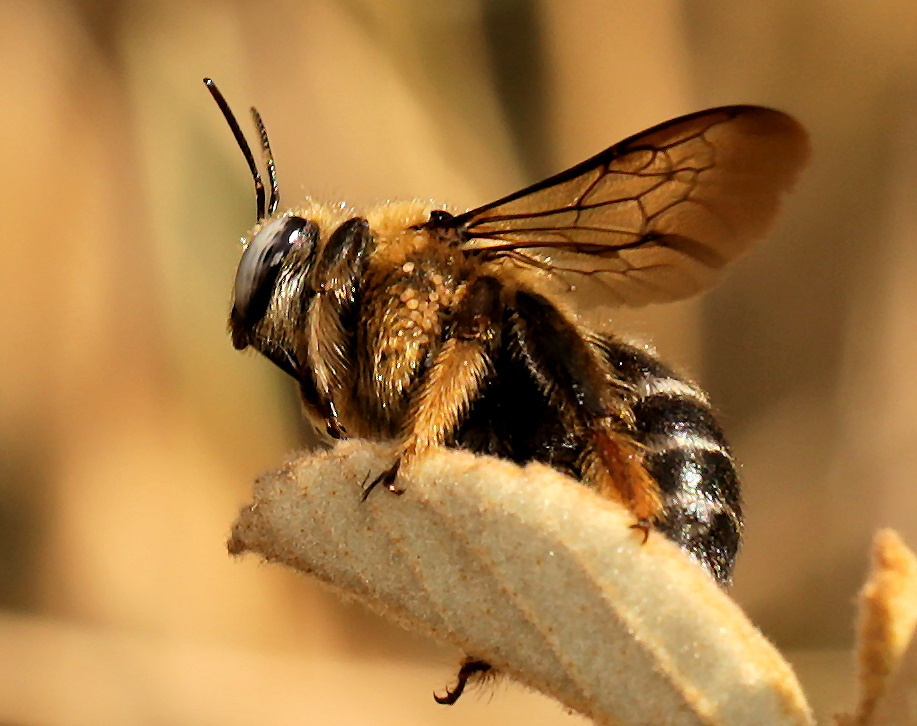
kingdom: Animalia
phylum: Arthropoda
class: Insecta
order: Hymenoptera
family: Apidae
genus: Xylocopa
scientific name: Xylocopa lugubris
